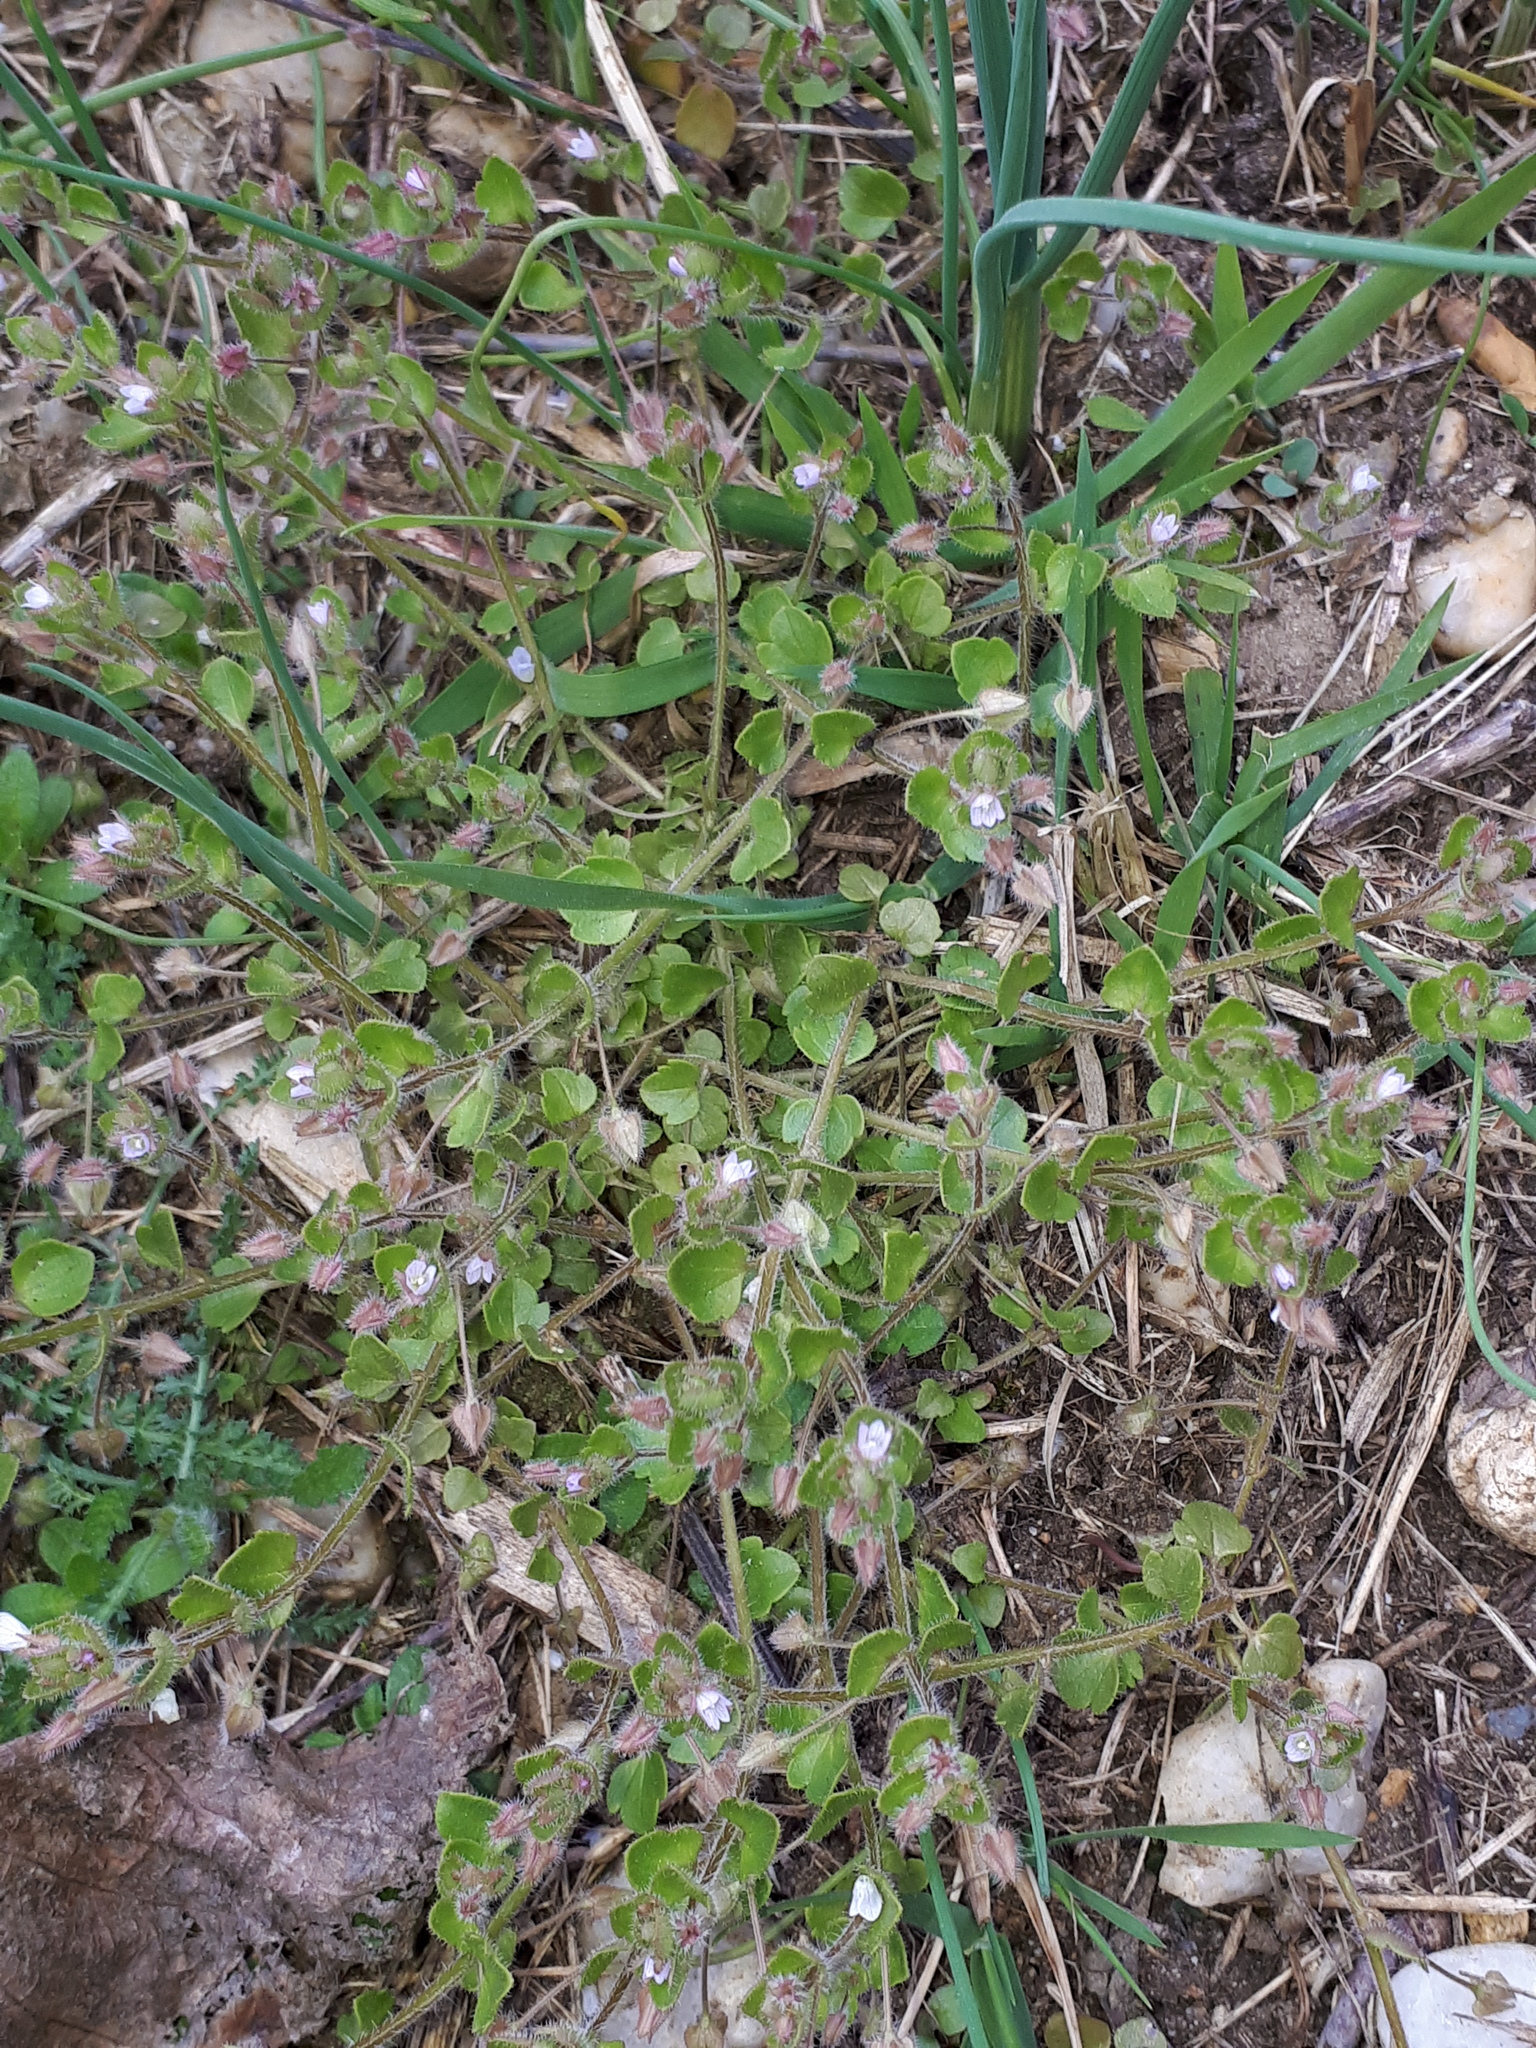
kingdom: Plantae
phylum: Tracheophyta
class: Magnoliopsida
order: Lamiales
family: Plantaginaceae
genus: Veronica
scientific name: Veronica sublobata
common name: False ivy-leaved speedwell
